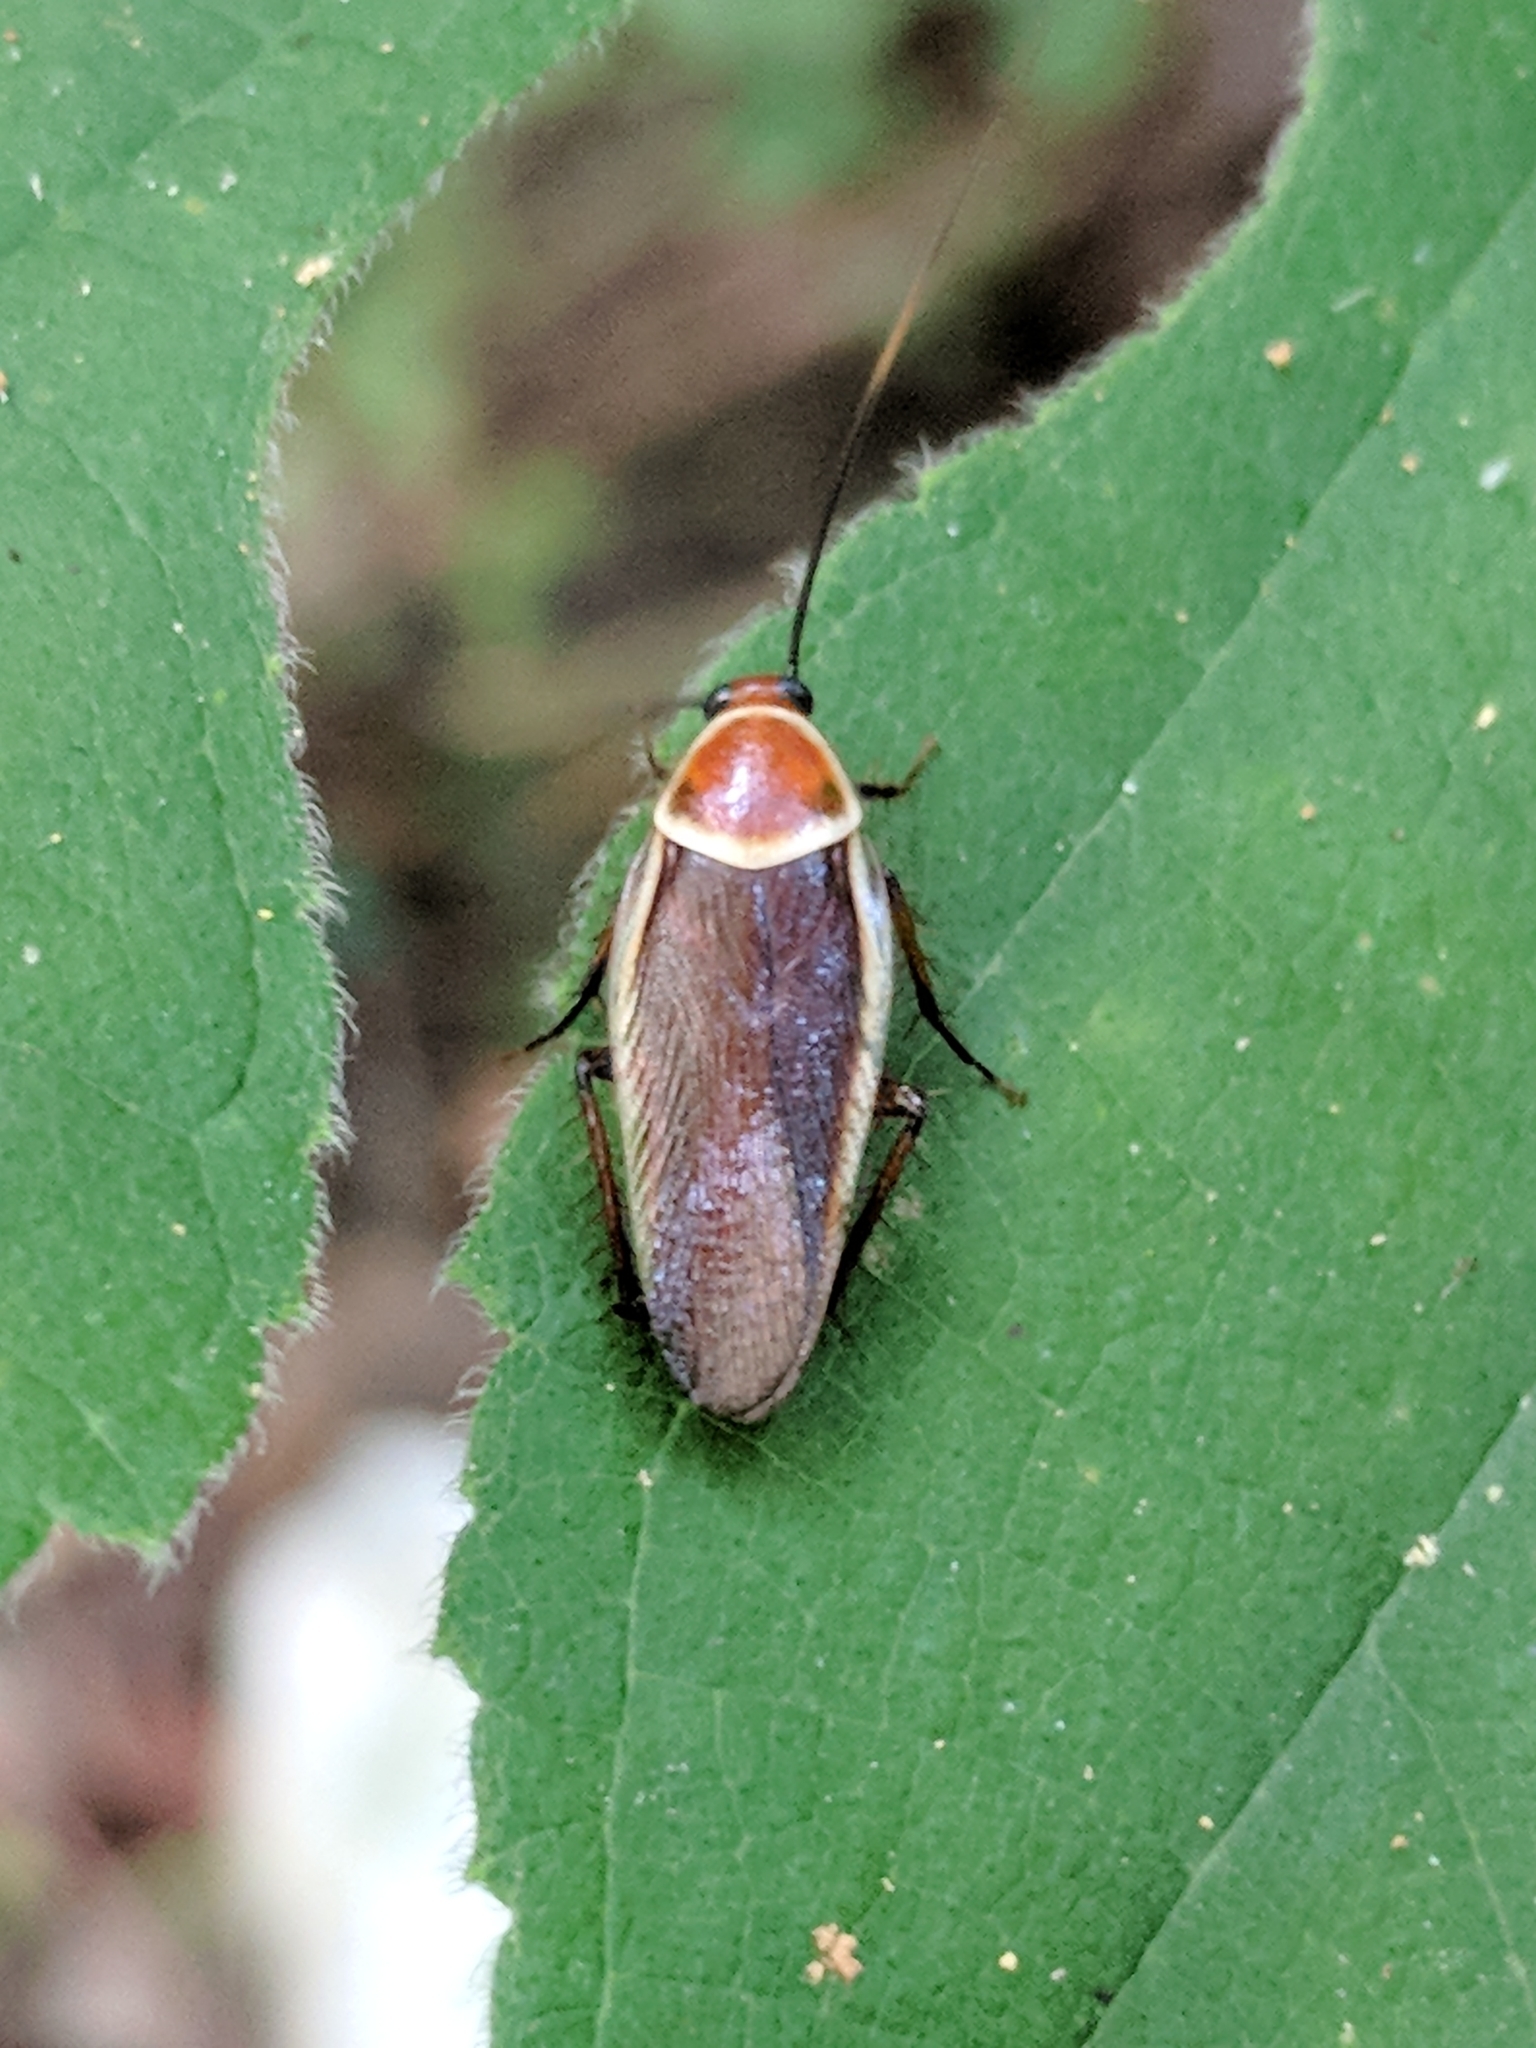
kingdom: Animalia
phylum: Arthropoda
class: Insecta
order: Blattodea
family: Ectobiidae
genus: Pseudomops
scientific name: Pseudomops septentrionalis
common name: Pale-bordered field cockroach
